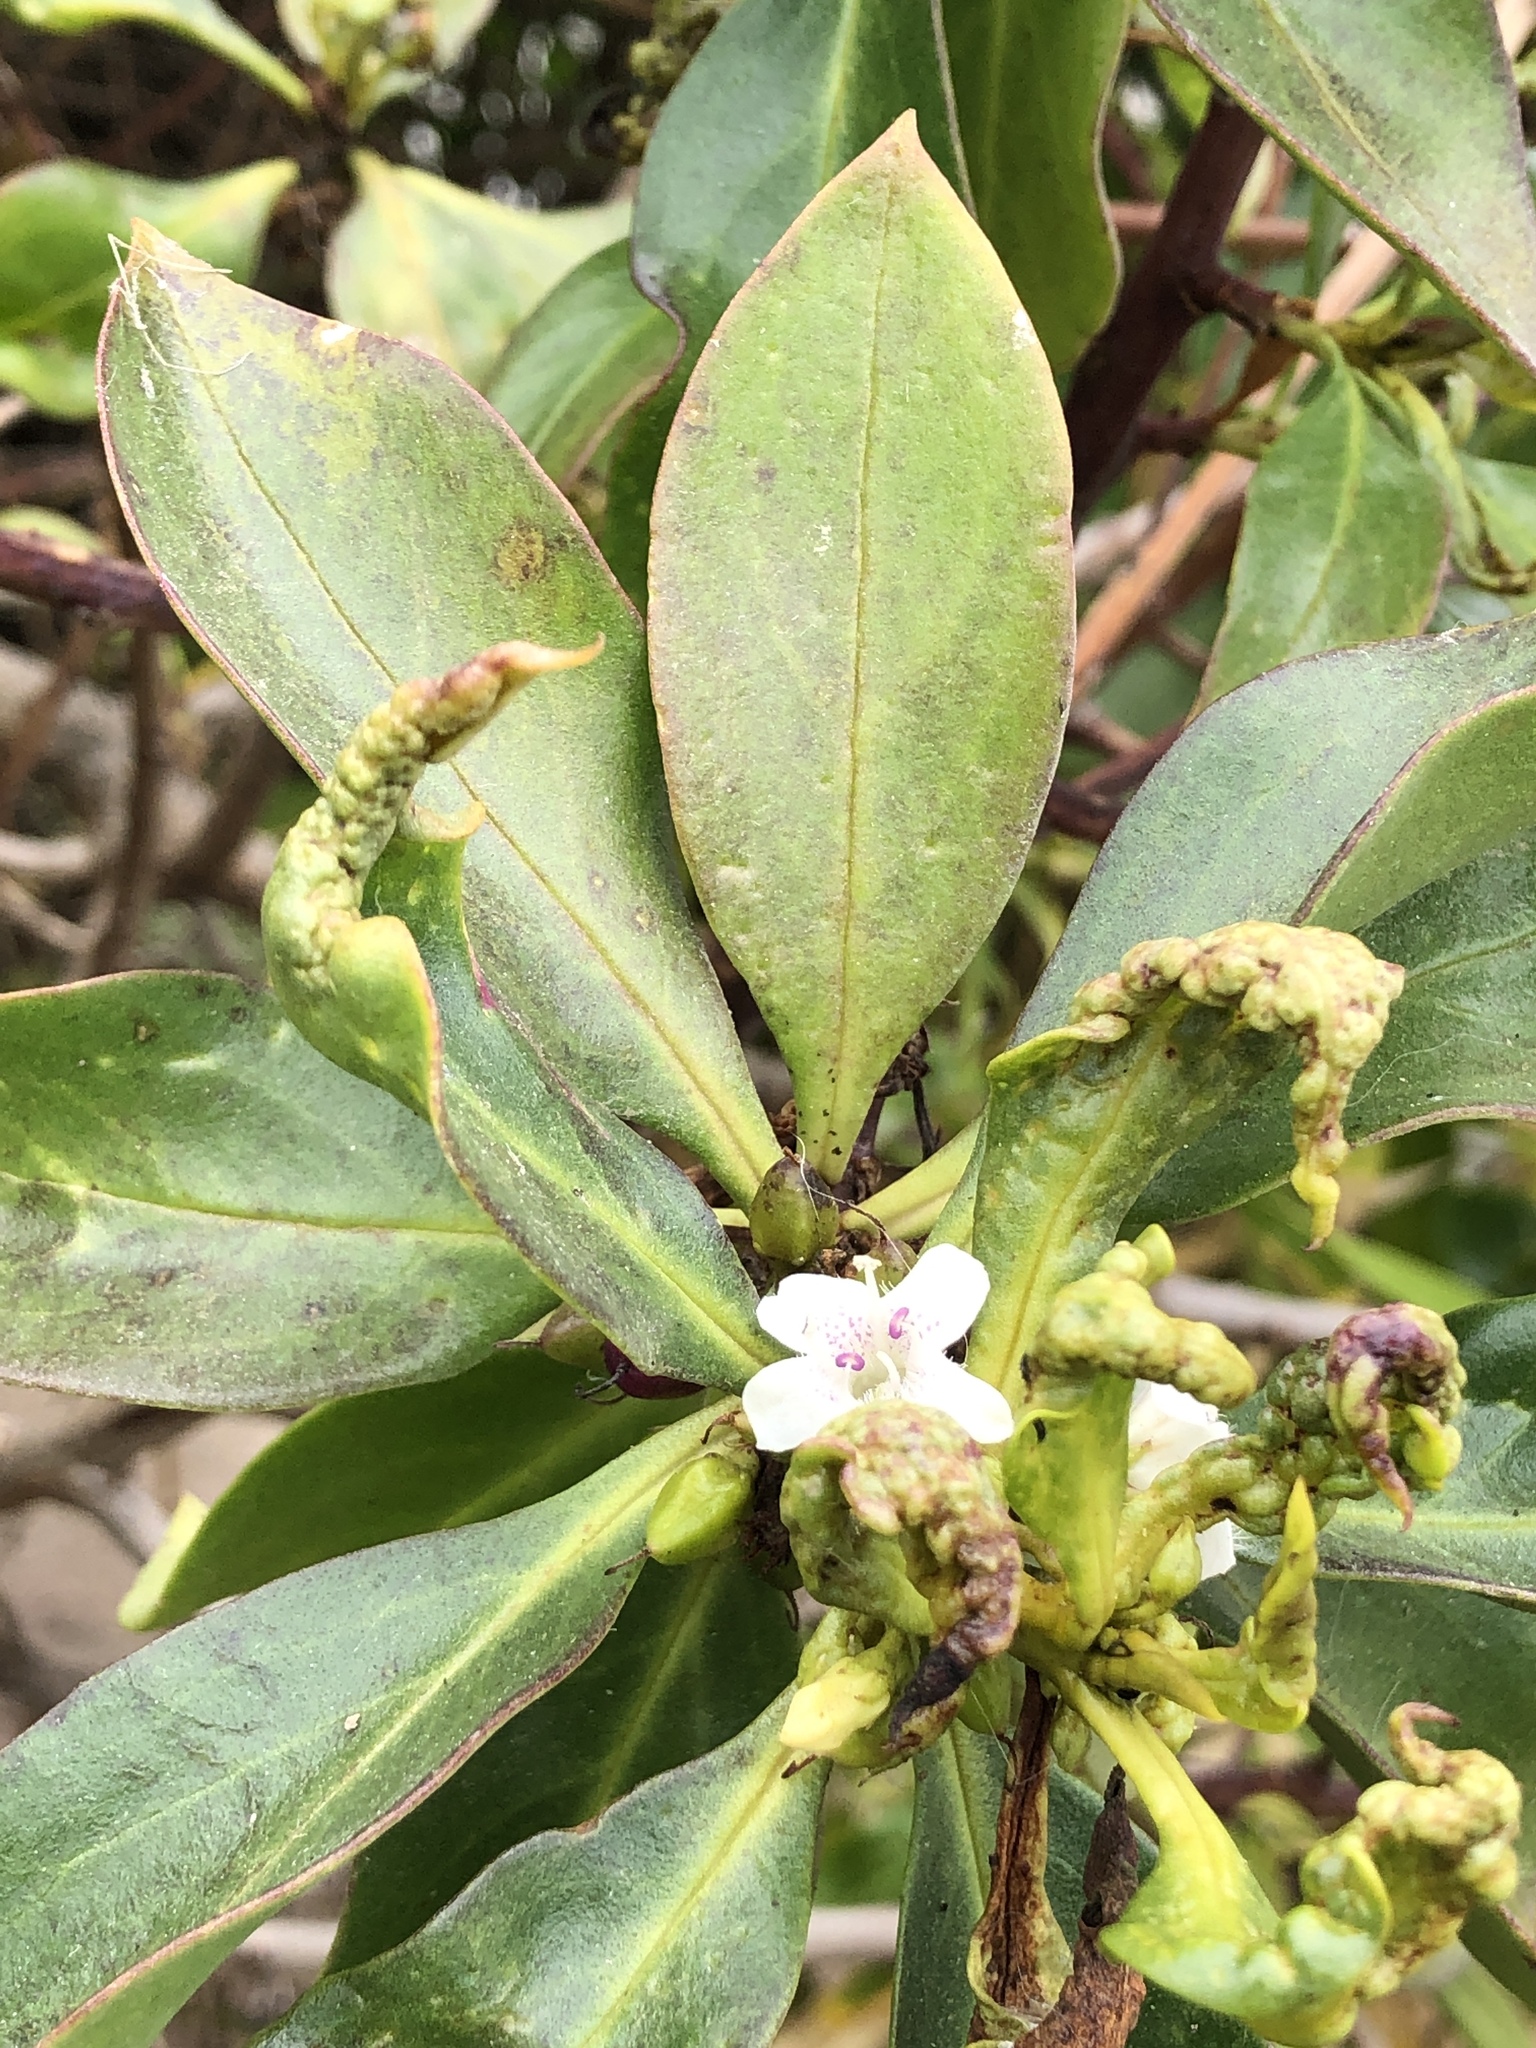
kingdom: Plantae
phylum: Tracheophyta
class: Magnoliopsida
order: Lamiales
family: Scrophulariaceae
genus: Myoporum
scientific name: Myoporum laetum
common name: Ngaio tree
